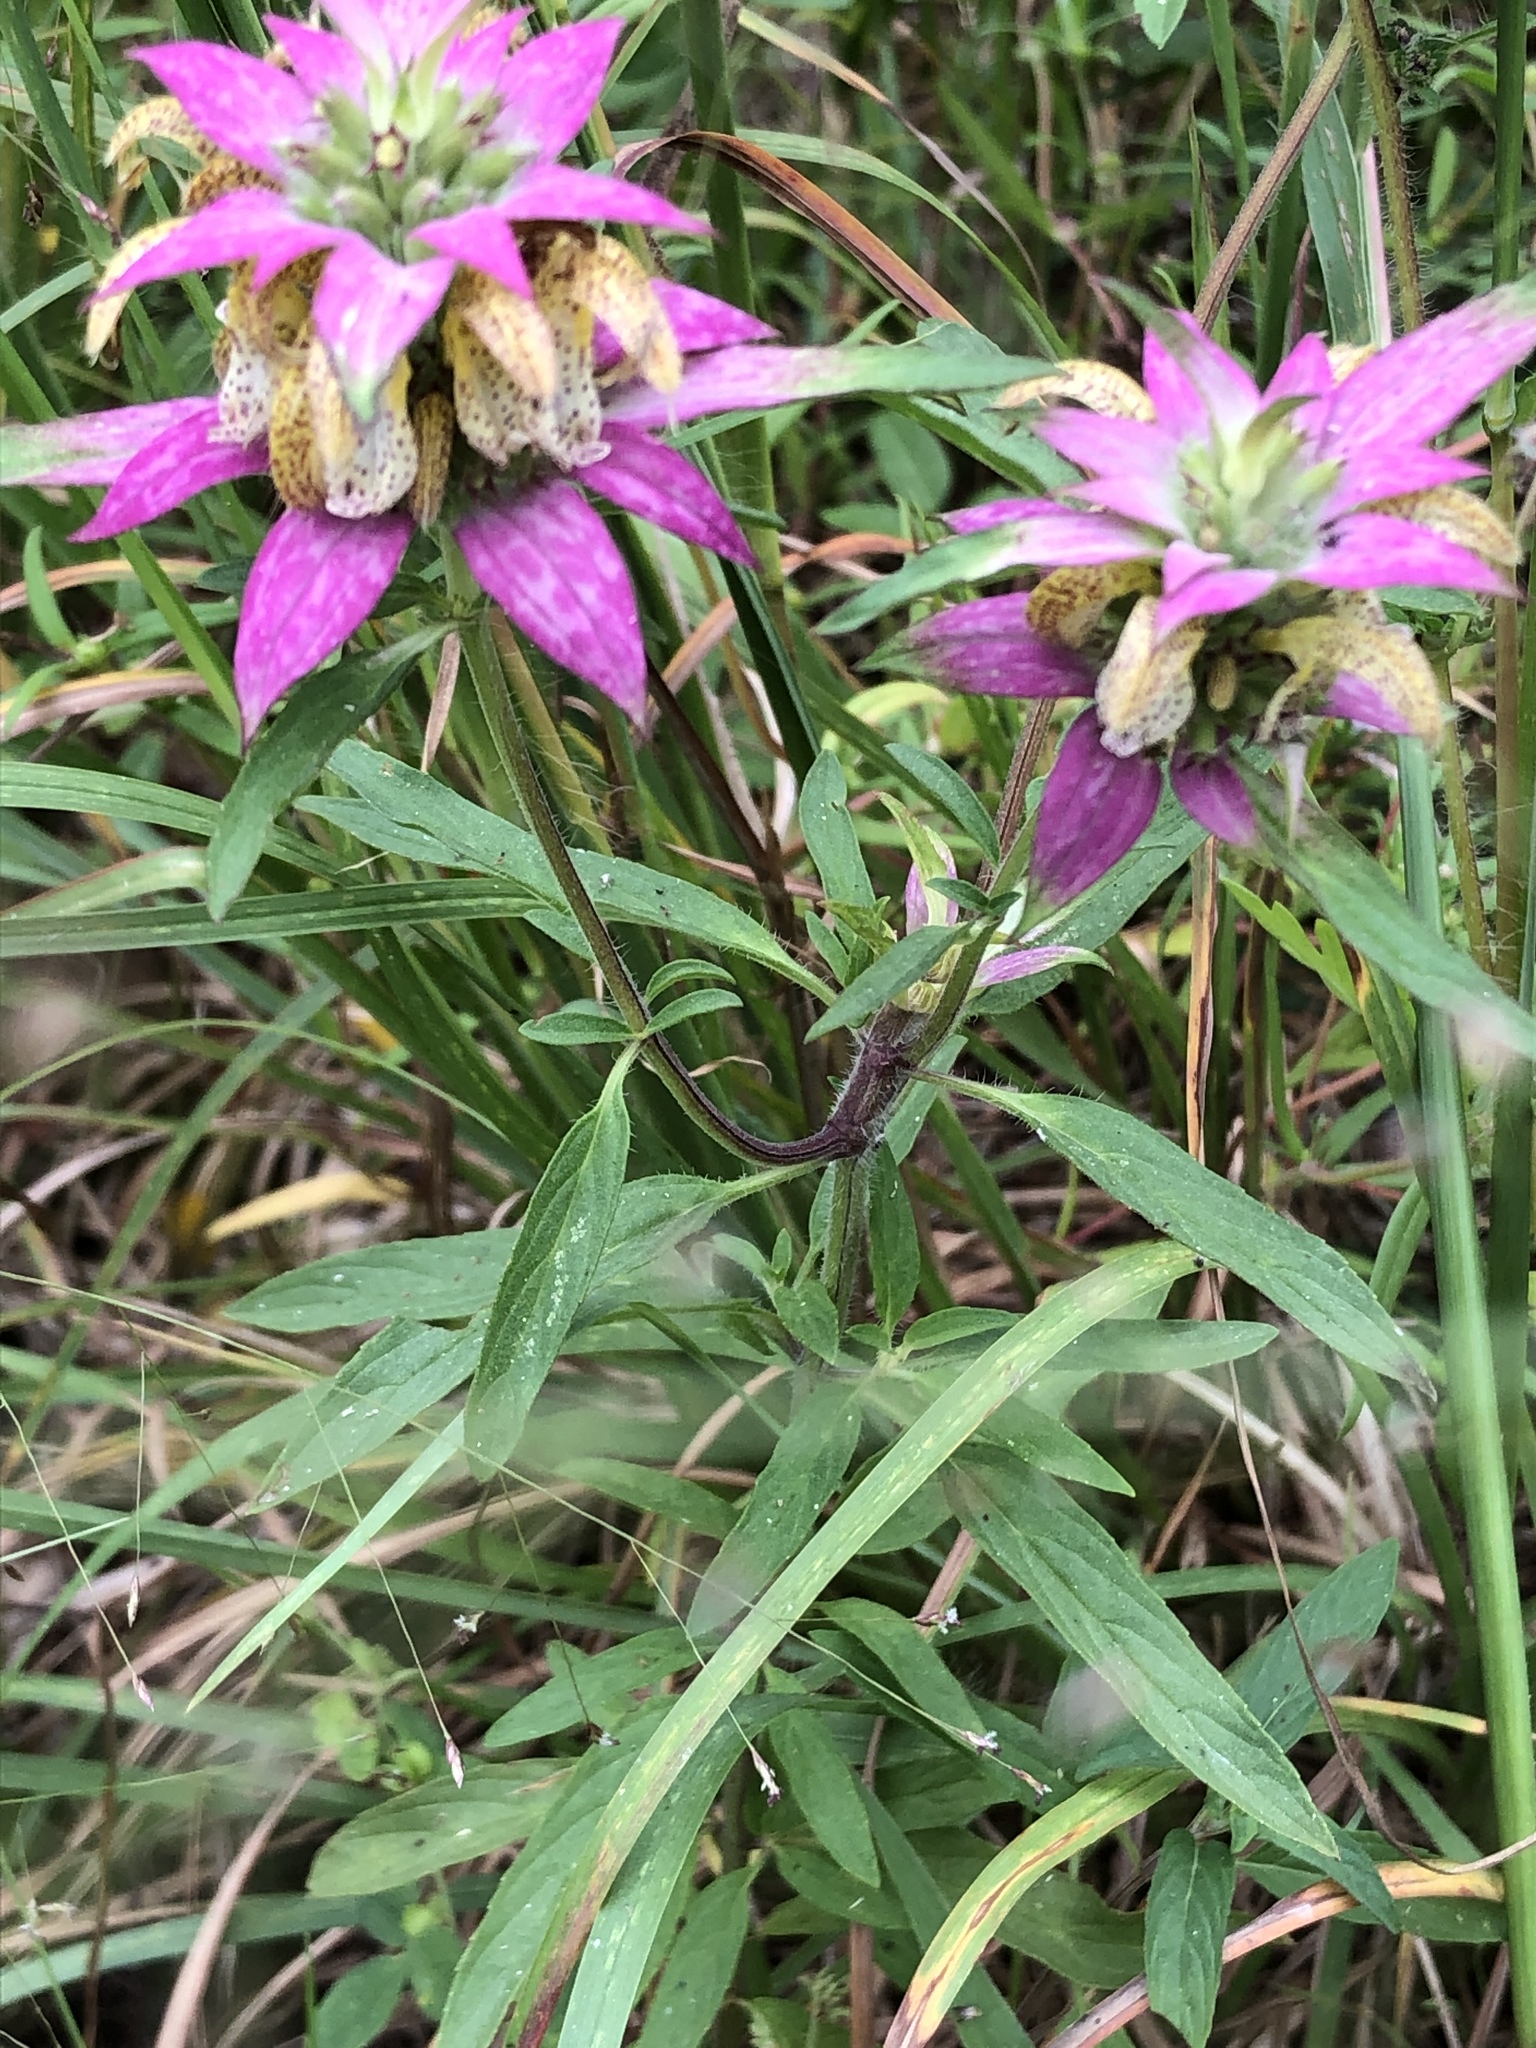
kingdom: Plantae
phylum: Tracheophyta
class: Magnoliopsida
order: Lamiales
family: Lamiaceae
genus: Monarda
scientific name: Monarda punctata
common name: Dotted monarda
